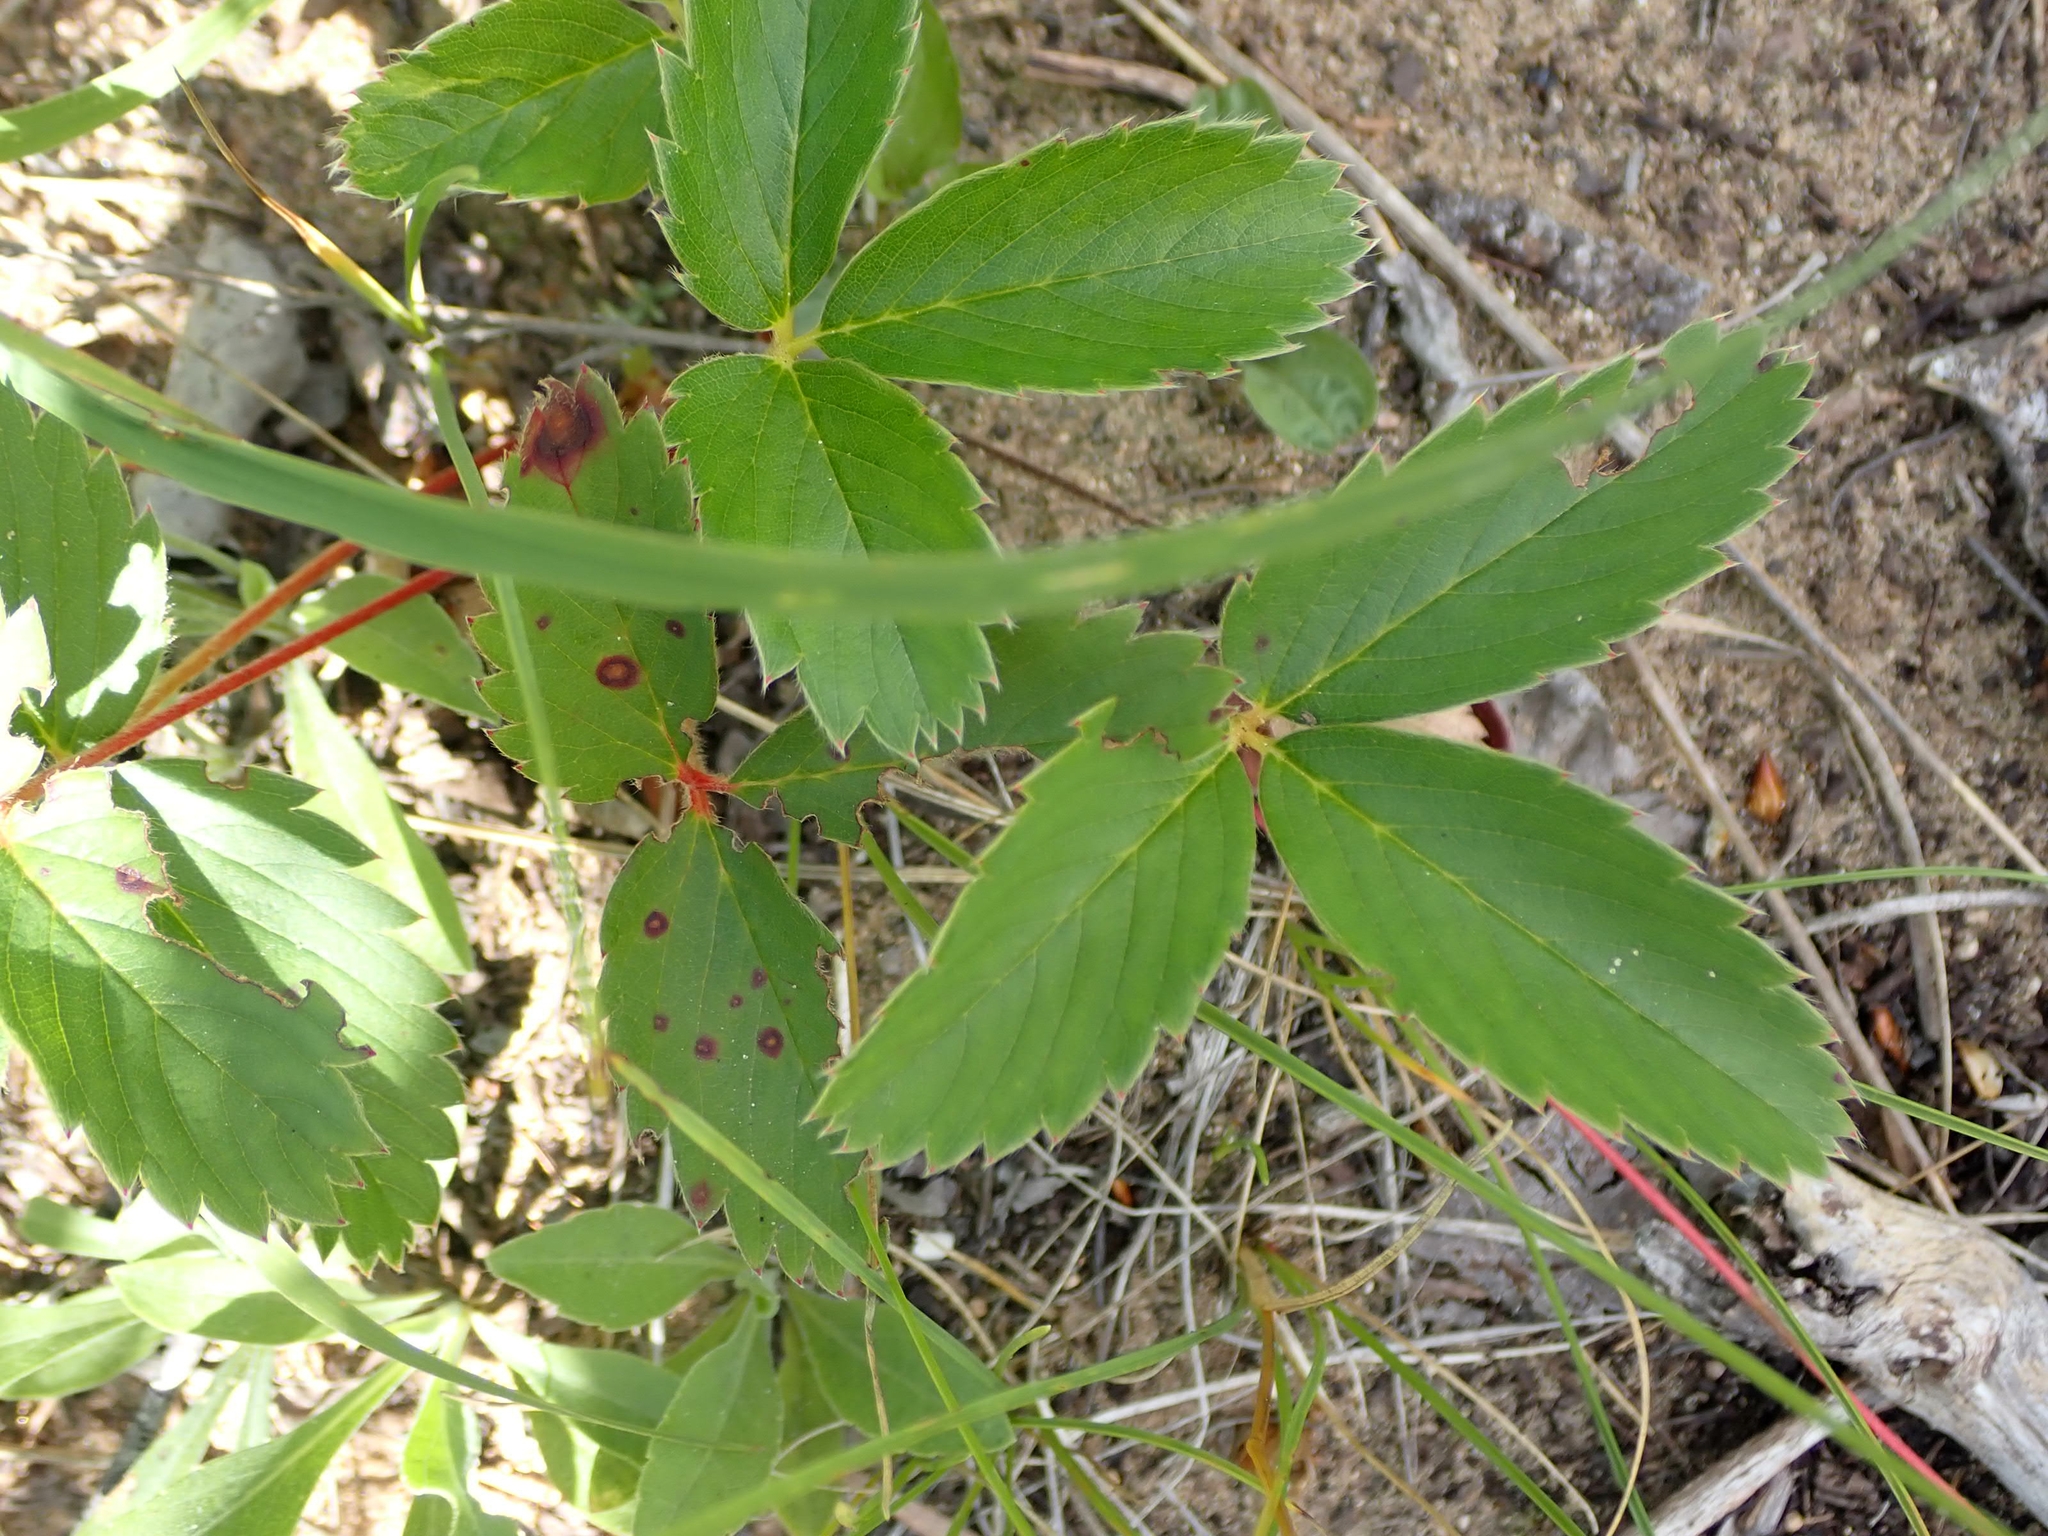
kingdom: Plantae
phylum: Tracheophyta
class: Magnoliopsida
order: Rosales
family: Rosaceae
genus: Fragaria
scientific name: Fragaria virginiana
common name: Thickleaved wild strawberry
